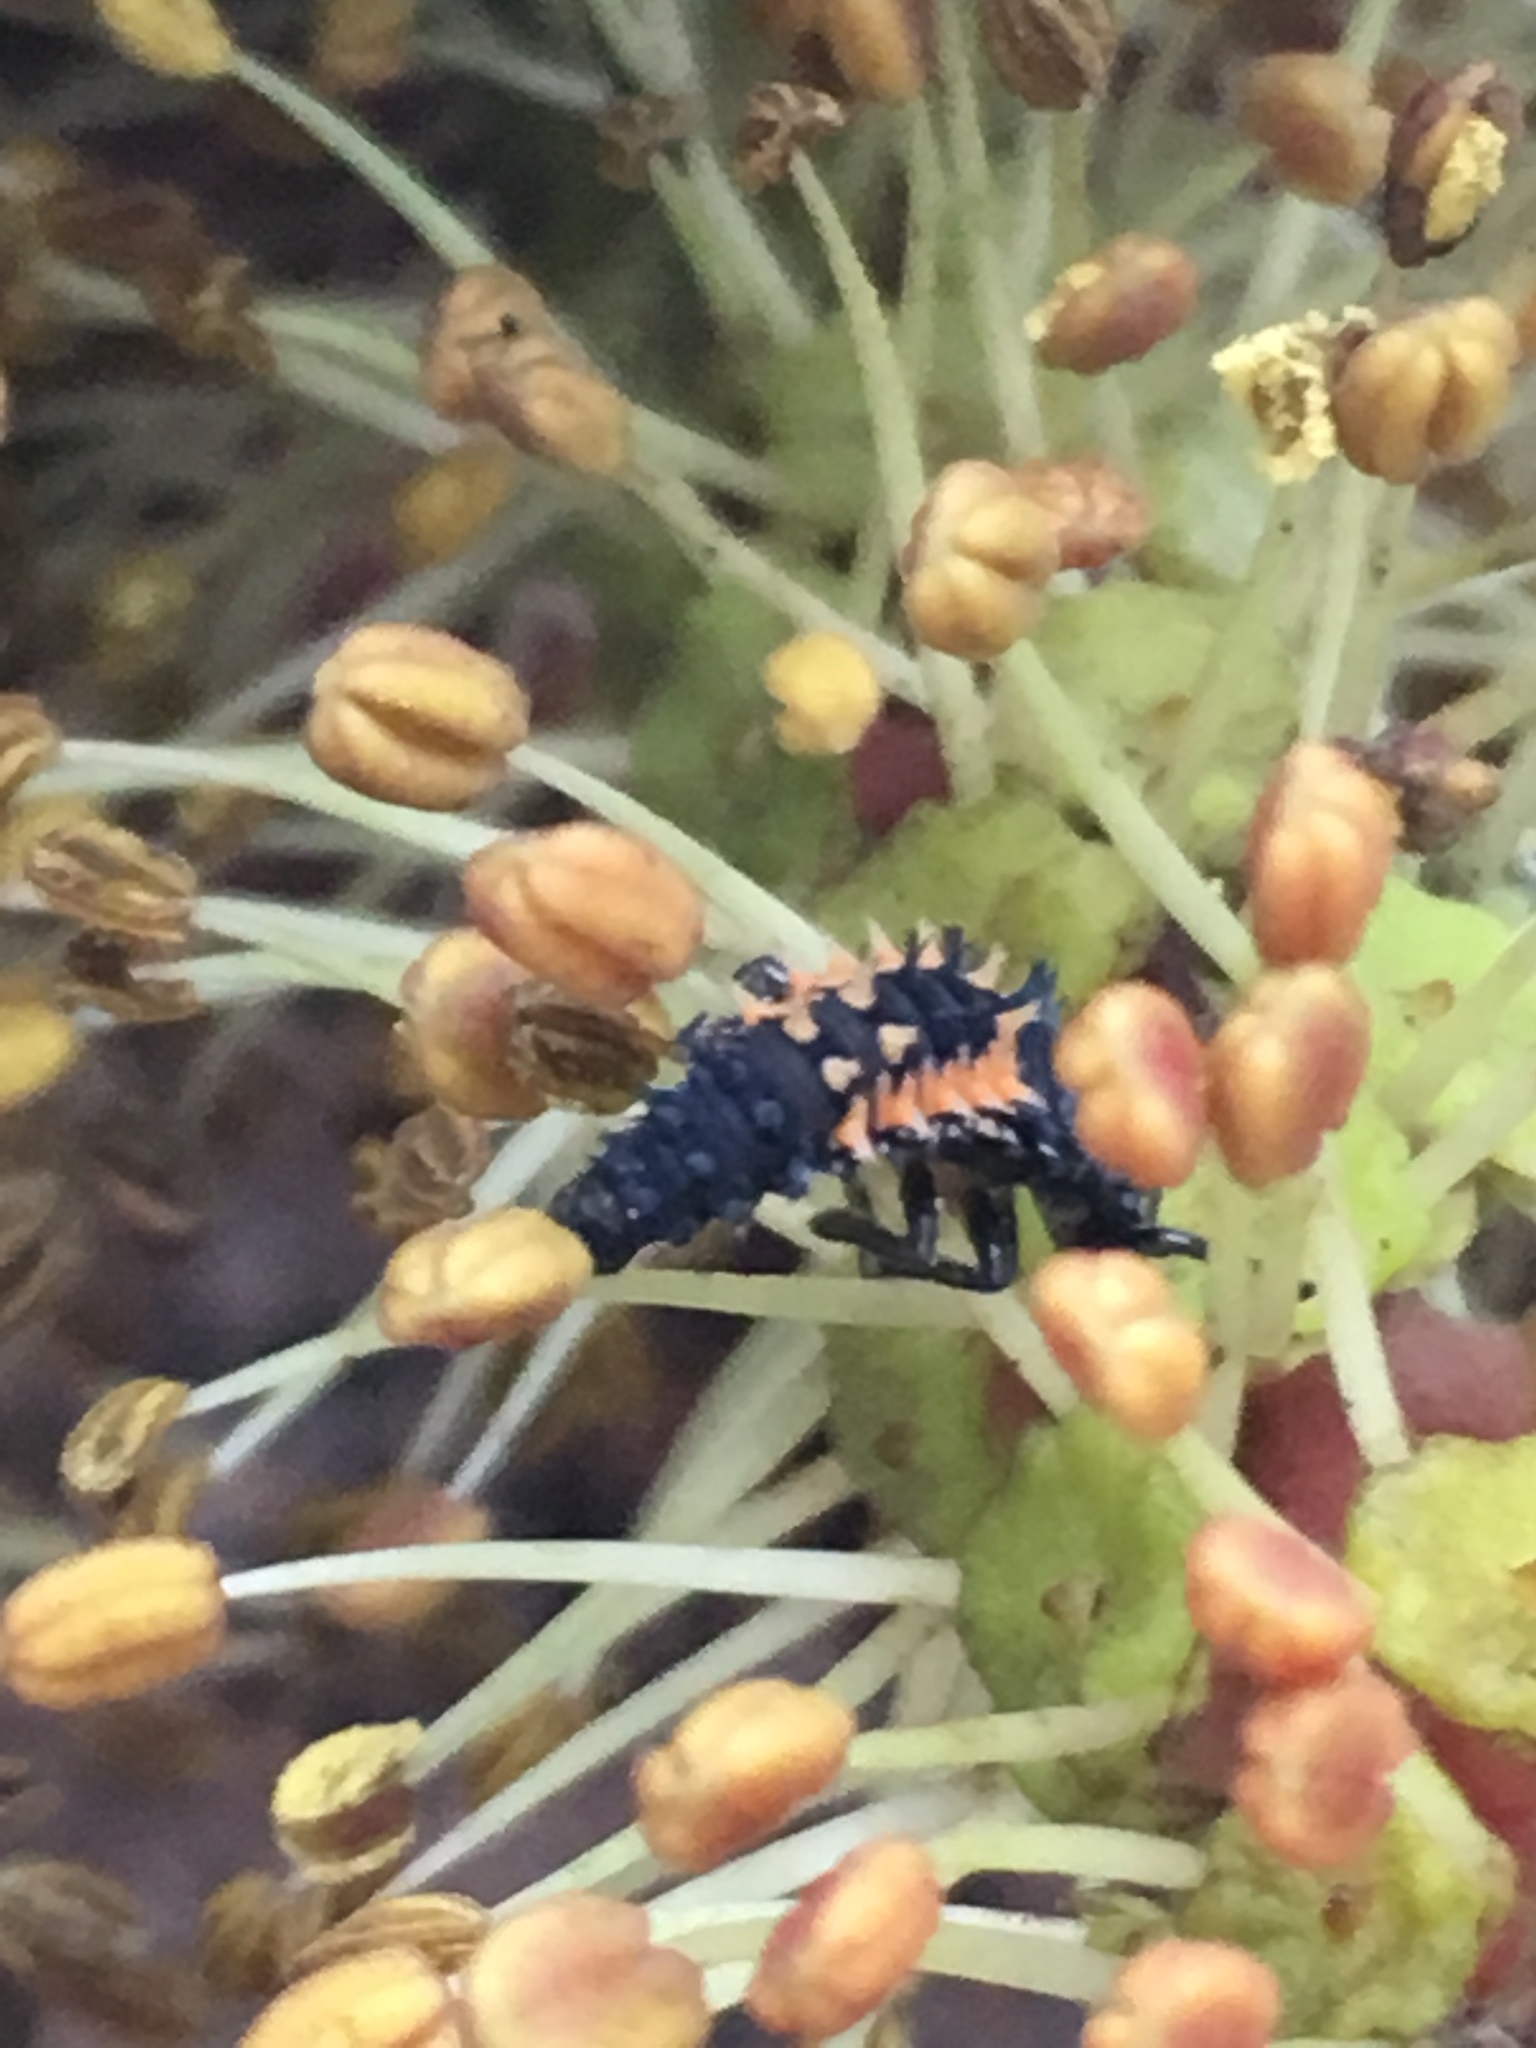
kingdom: Animalia
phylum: Arthropoda
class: Insecta
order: Coleoptera
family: Coccinellidae
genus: Harmonia
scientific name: Harmonia axyridis
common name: Harlequin ladybird
